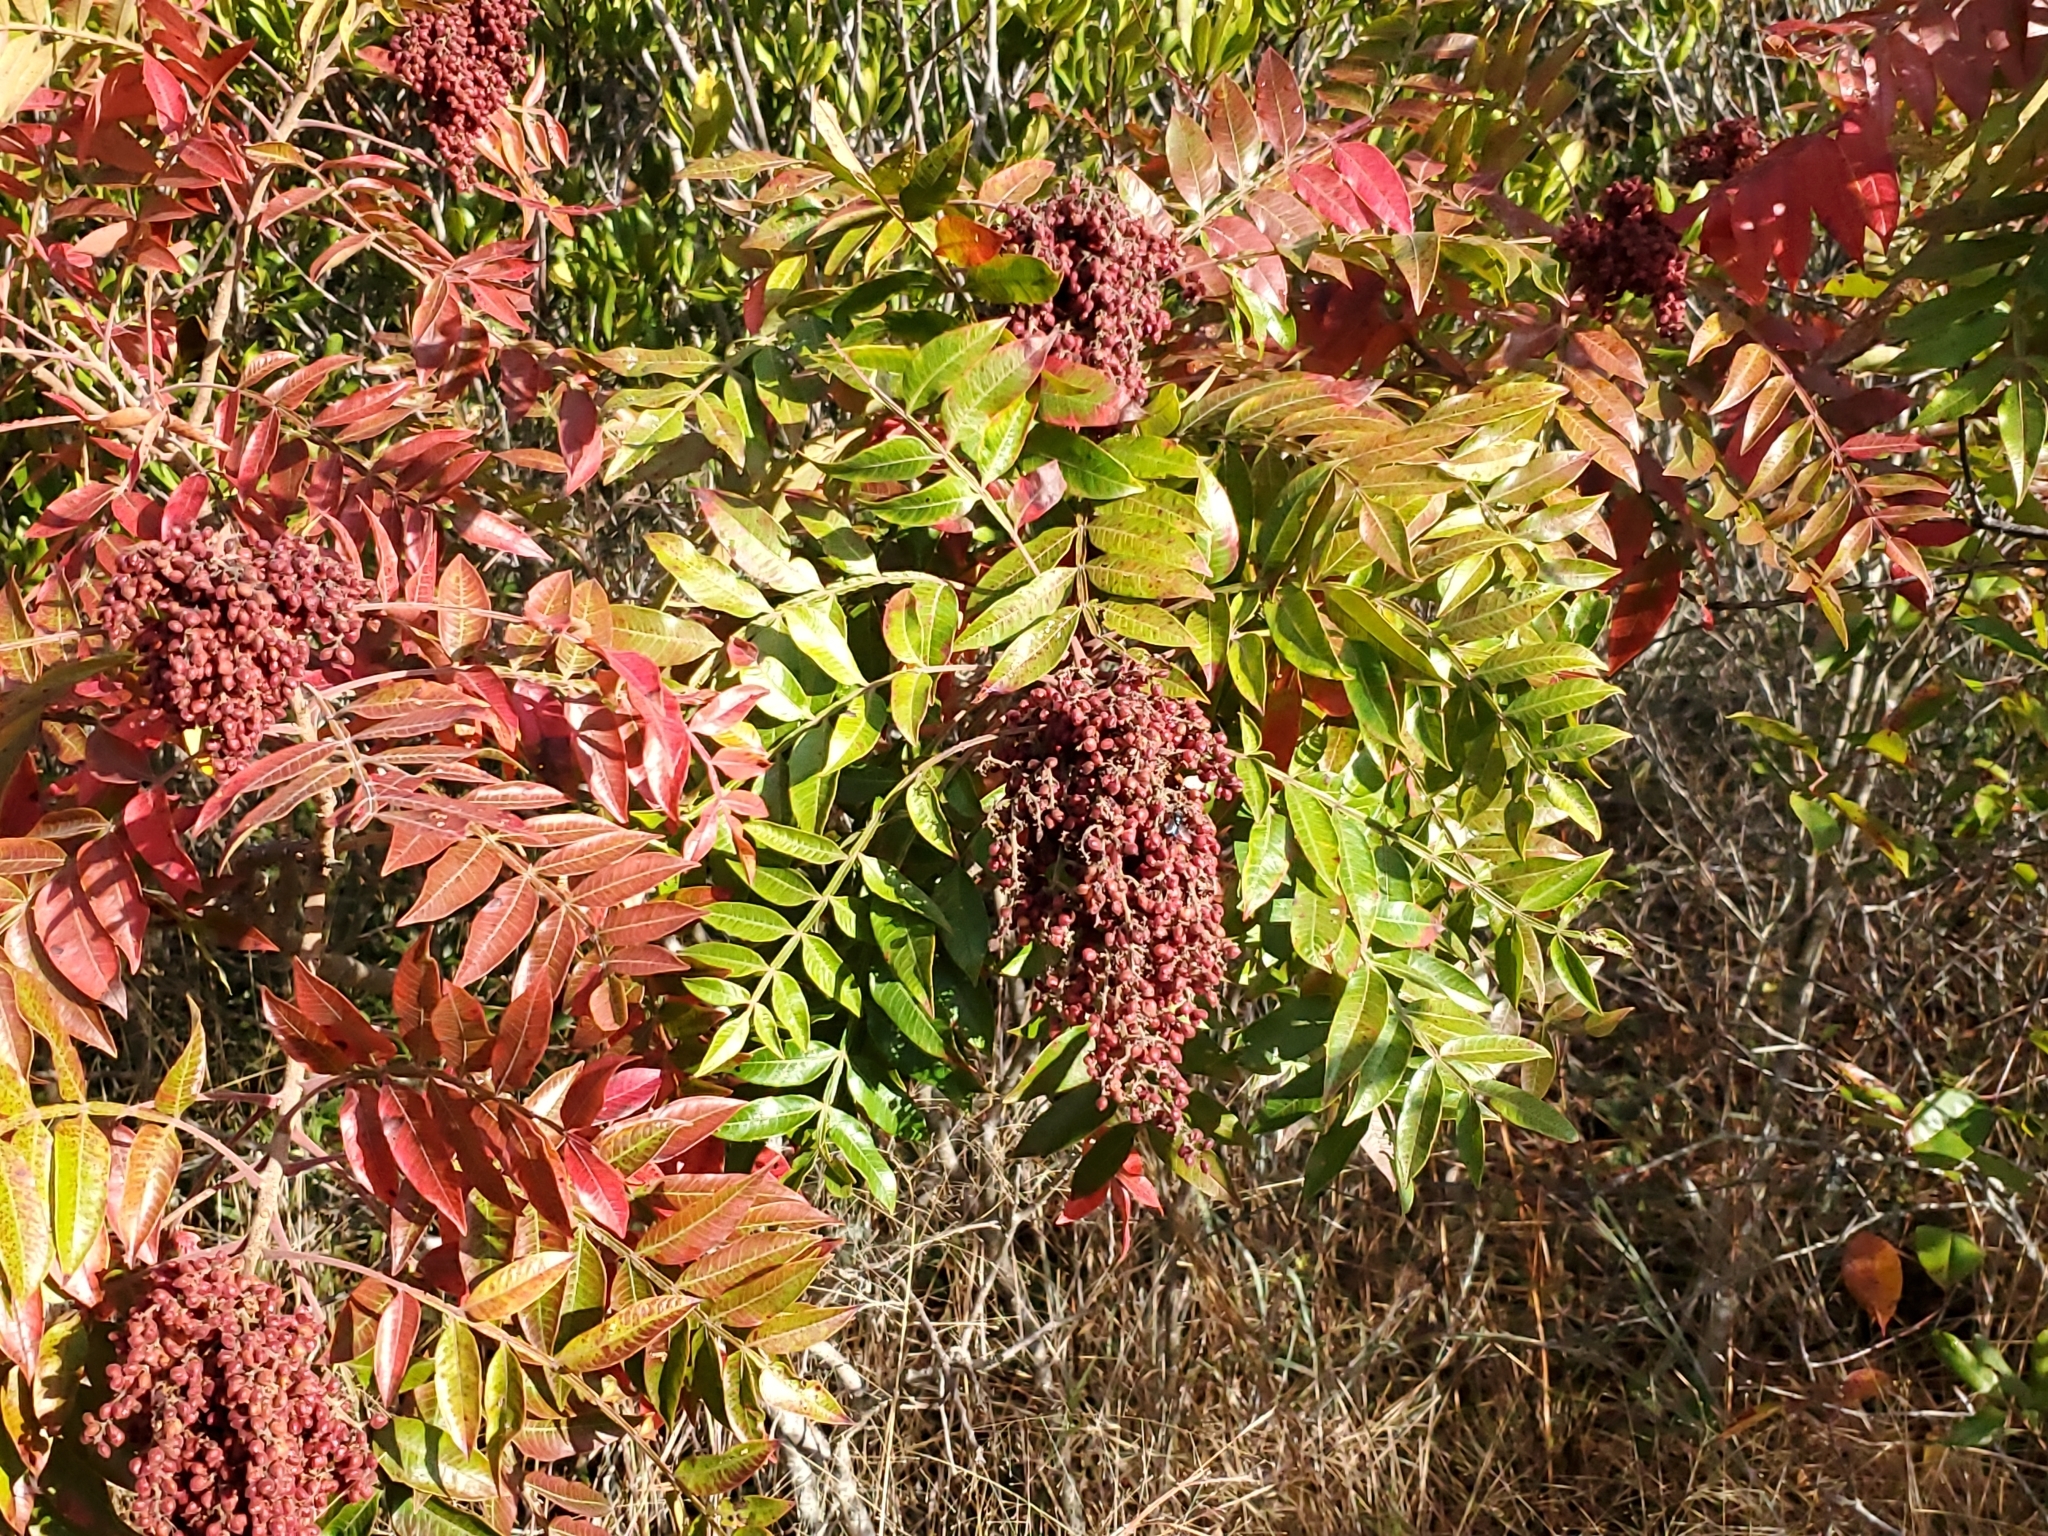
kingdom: Plantae
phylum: Tracheophyta
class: Magnoliopsida
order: Sapindales
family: Anacardiaceae
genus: Rhus
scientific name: Rhus copallina
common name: Shining sumac
